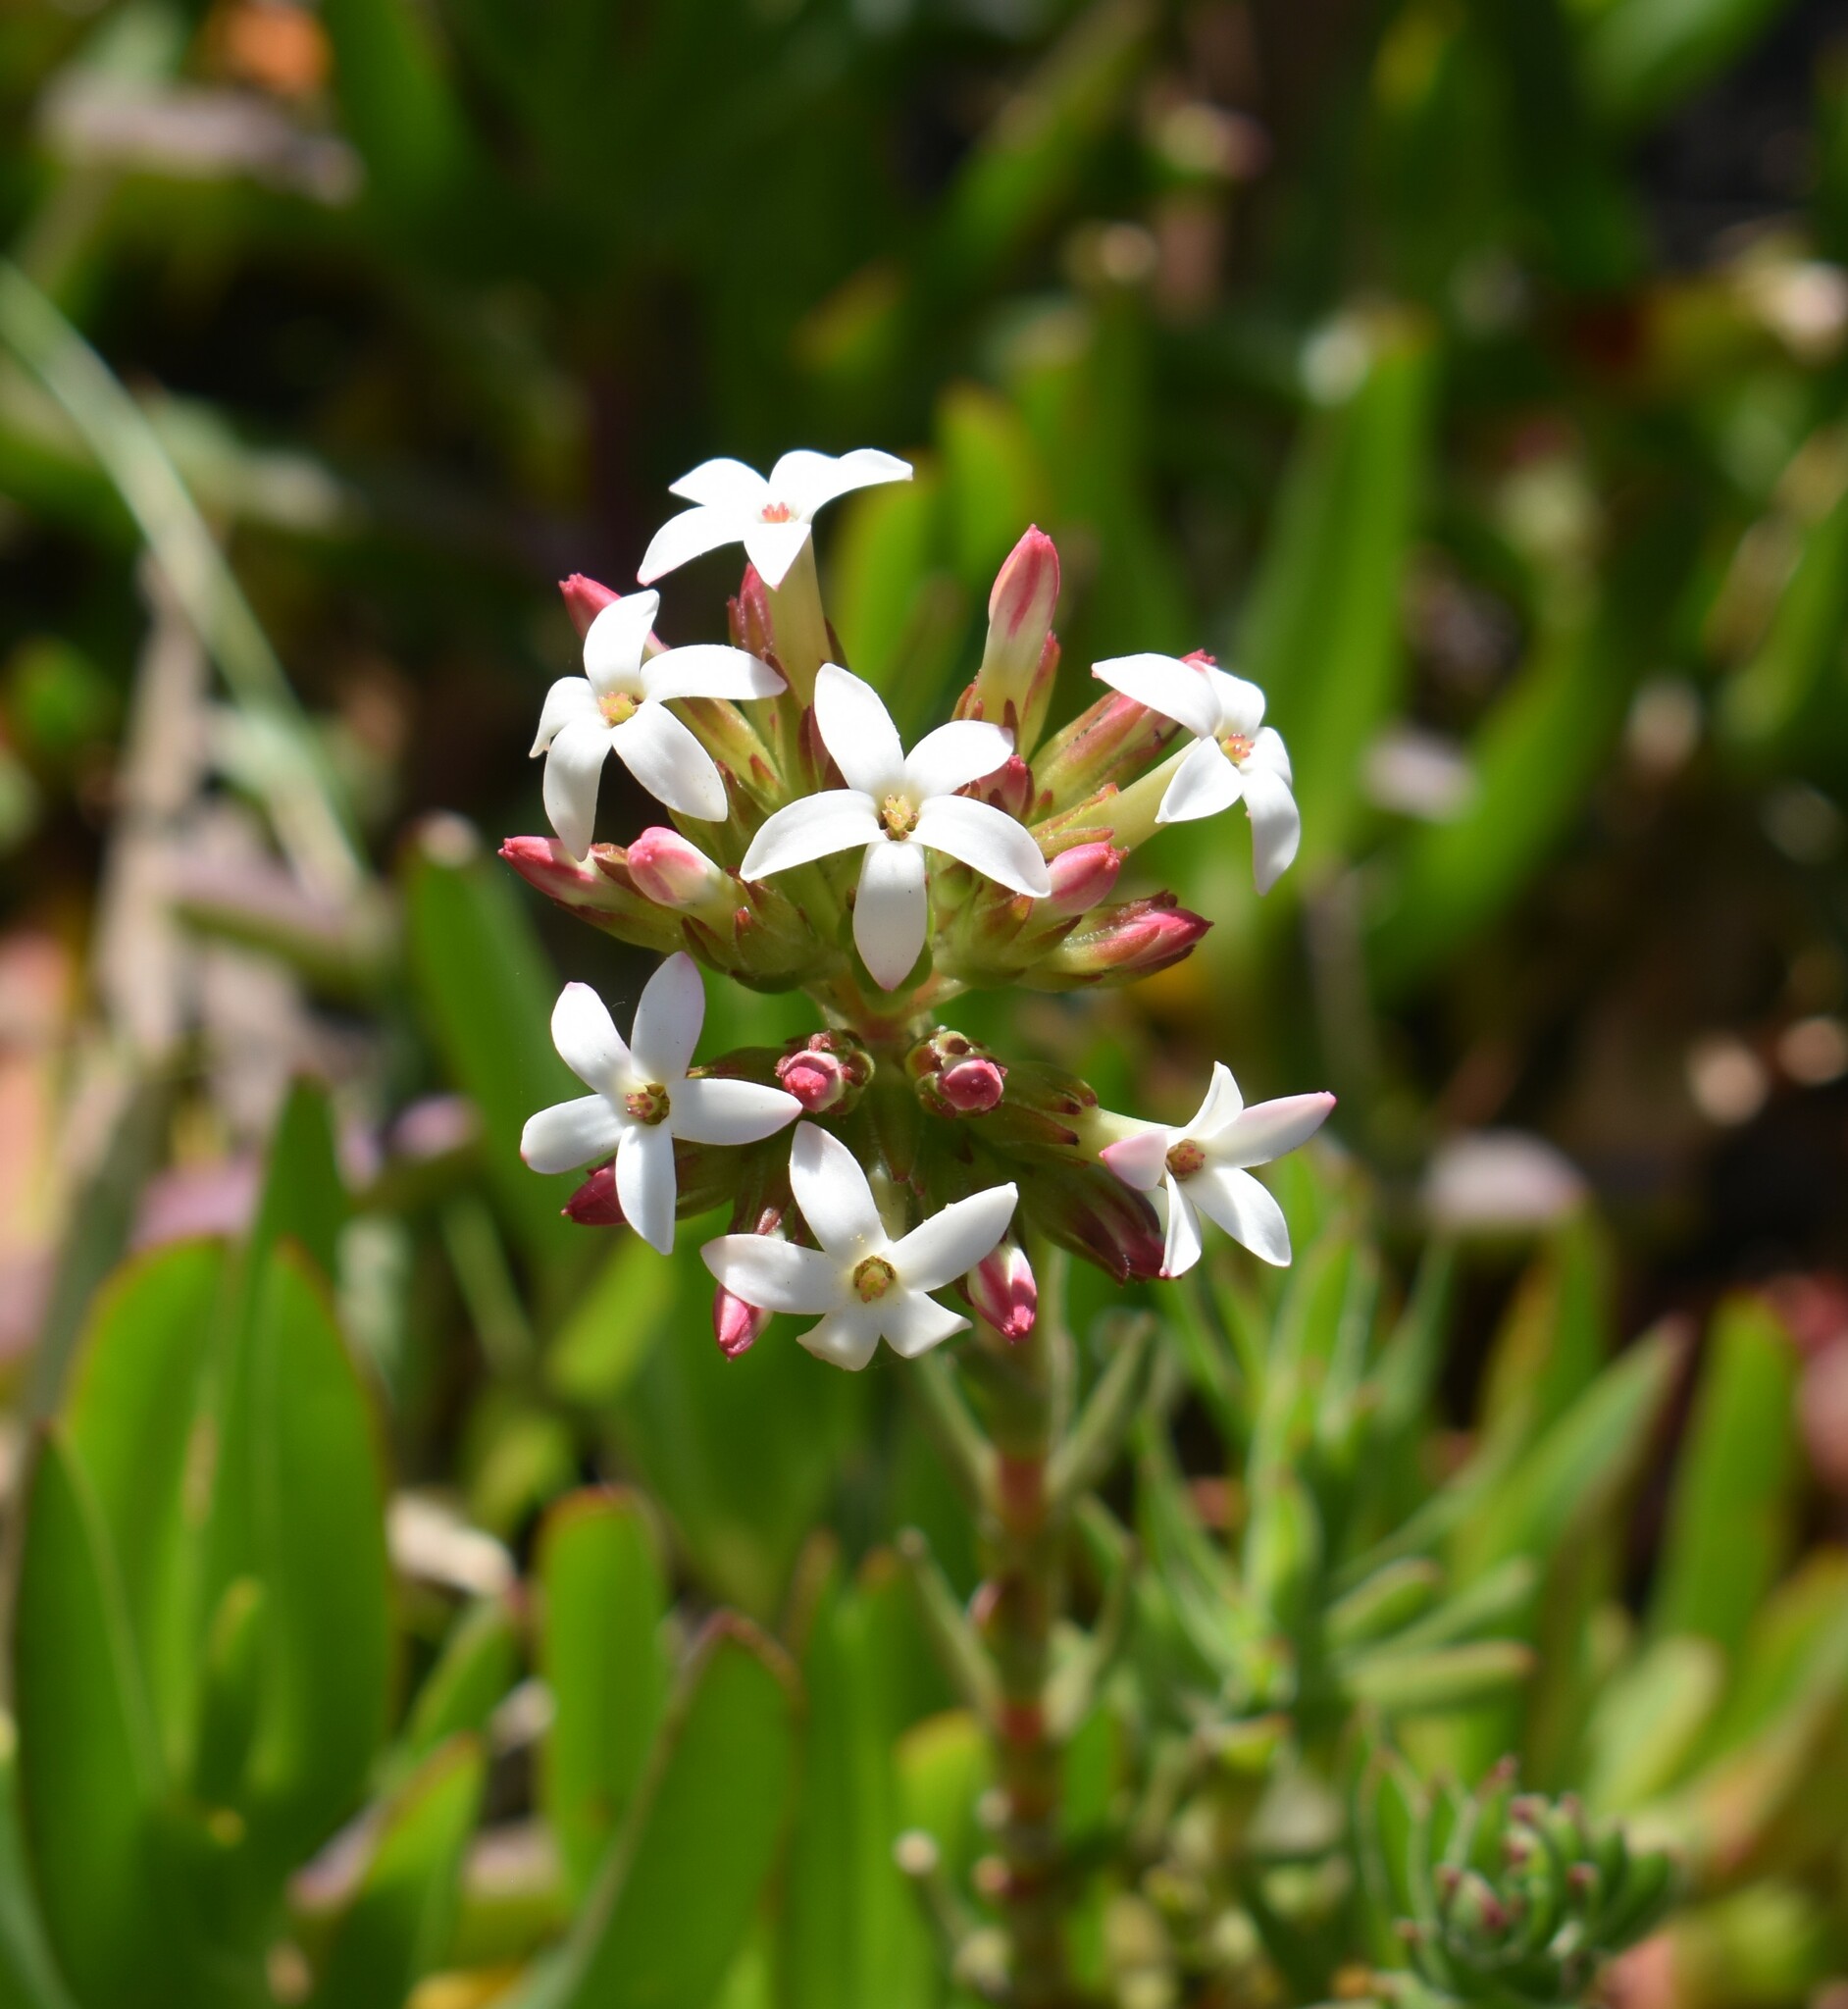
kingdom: Plantae
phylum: Tracheophyta
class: Magnoliopsida
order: Saxifragales
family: Crassulaceae
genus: Crassula
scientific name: Crassula fascicularis
